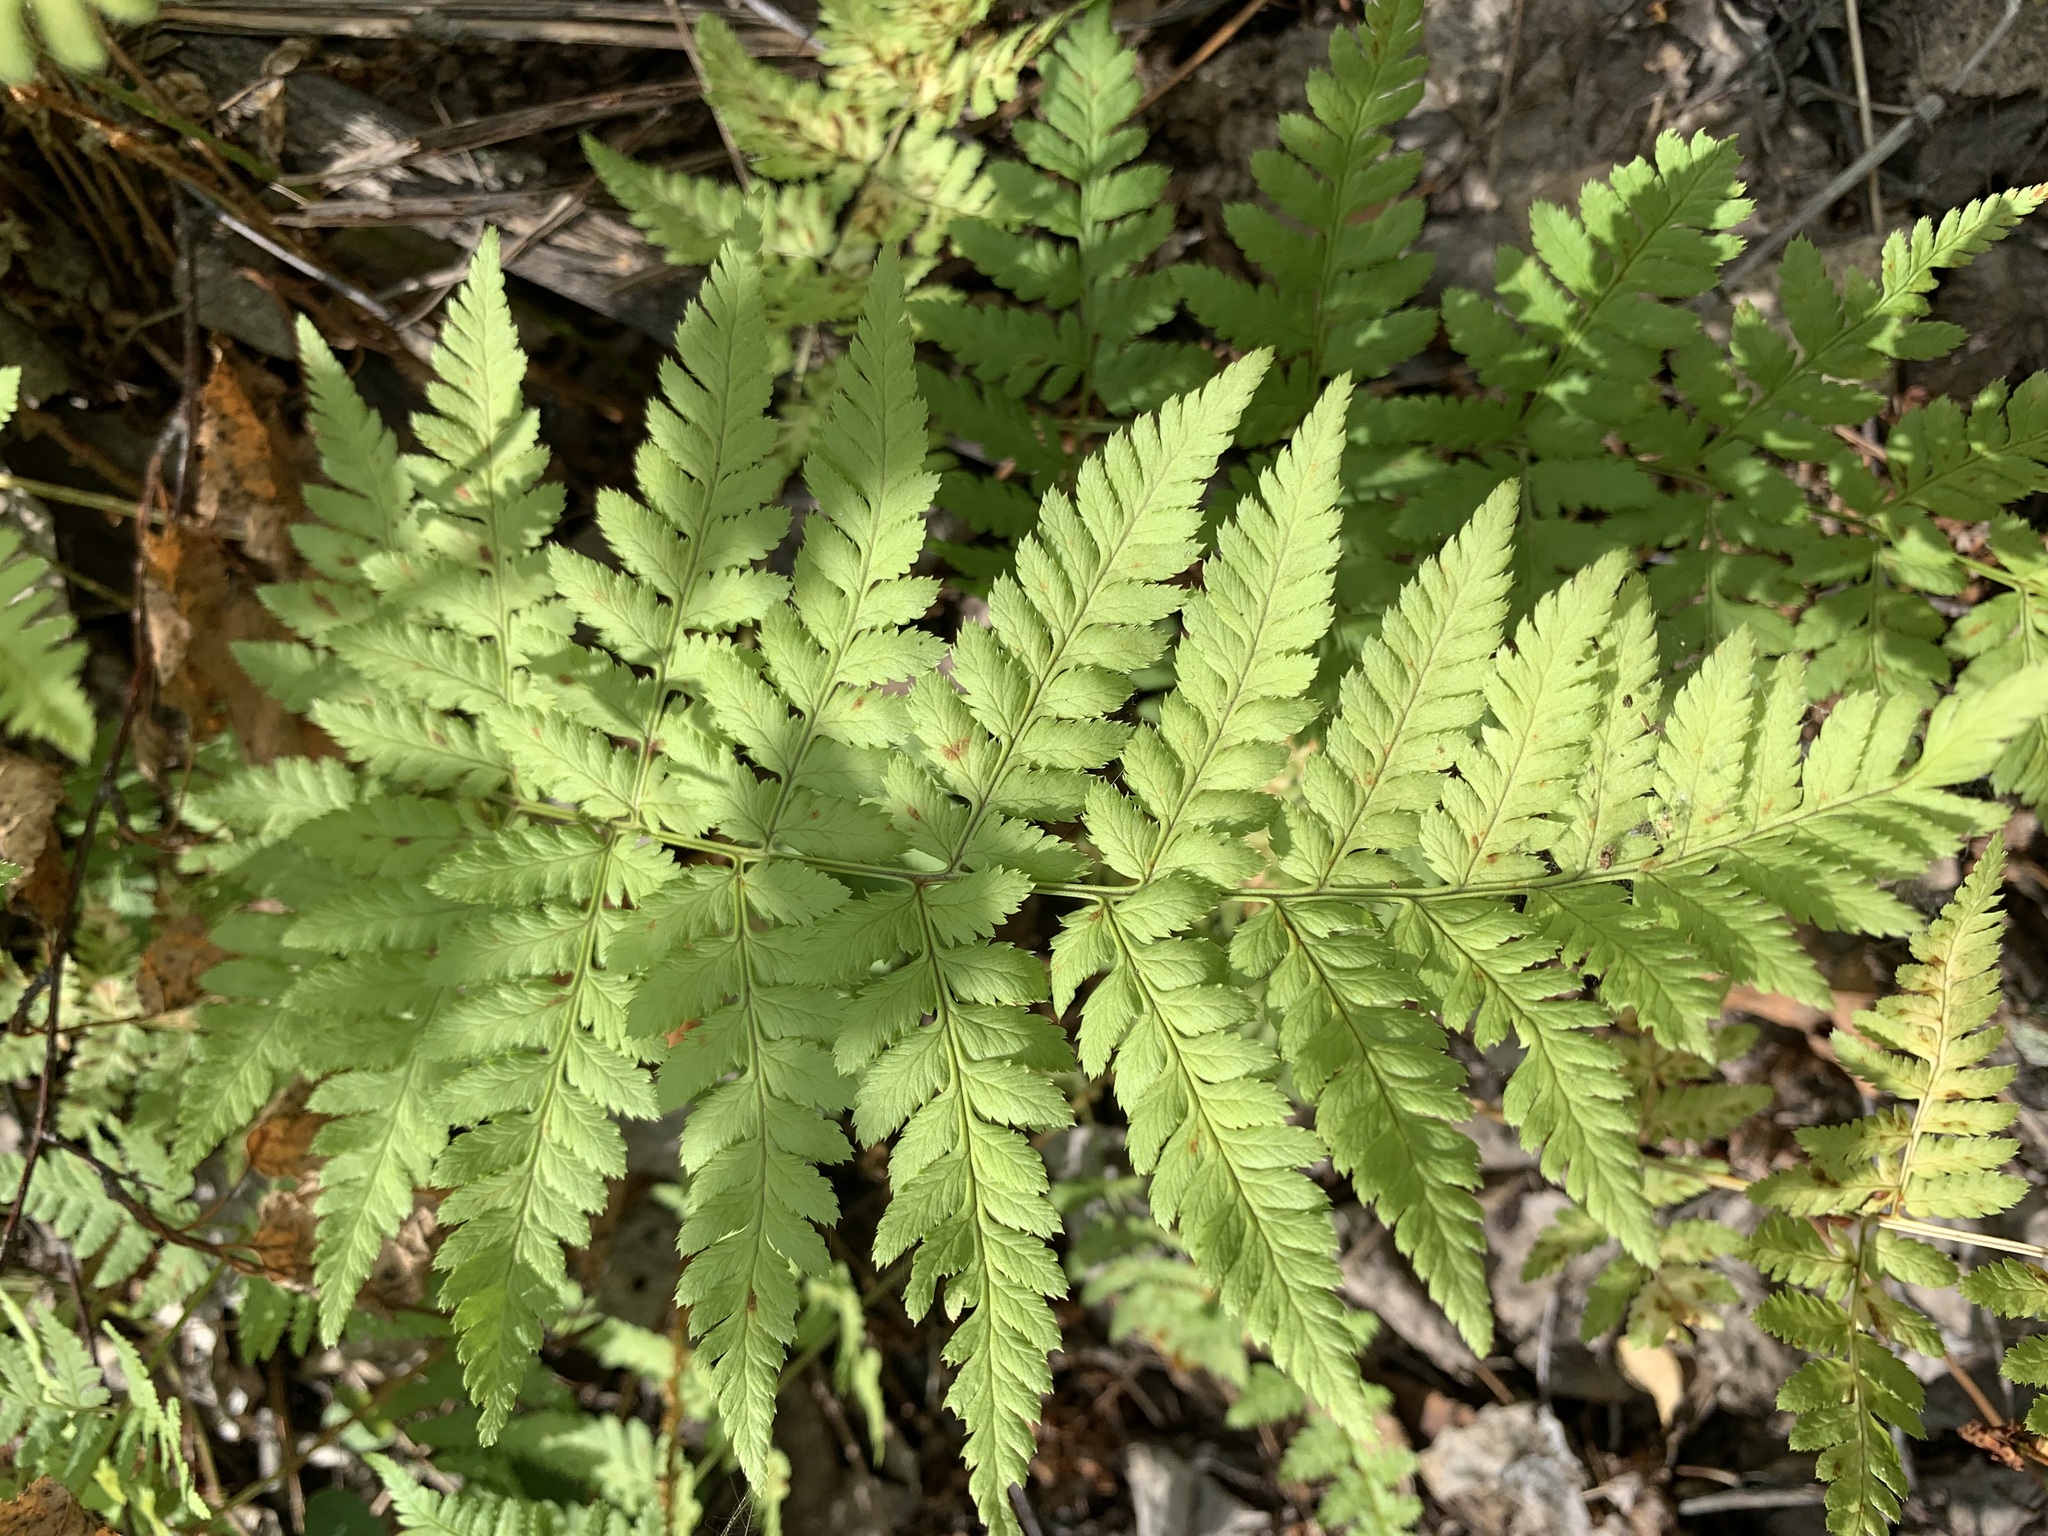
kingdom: Plantae
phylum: Tracheophyta
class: Polypodiopsida
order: Polypodiales
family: Dryopteridaceae
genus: Dryopteris
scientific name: Dryopteris carthusiana
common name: Narrow buckler-fern
